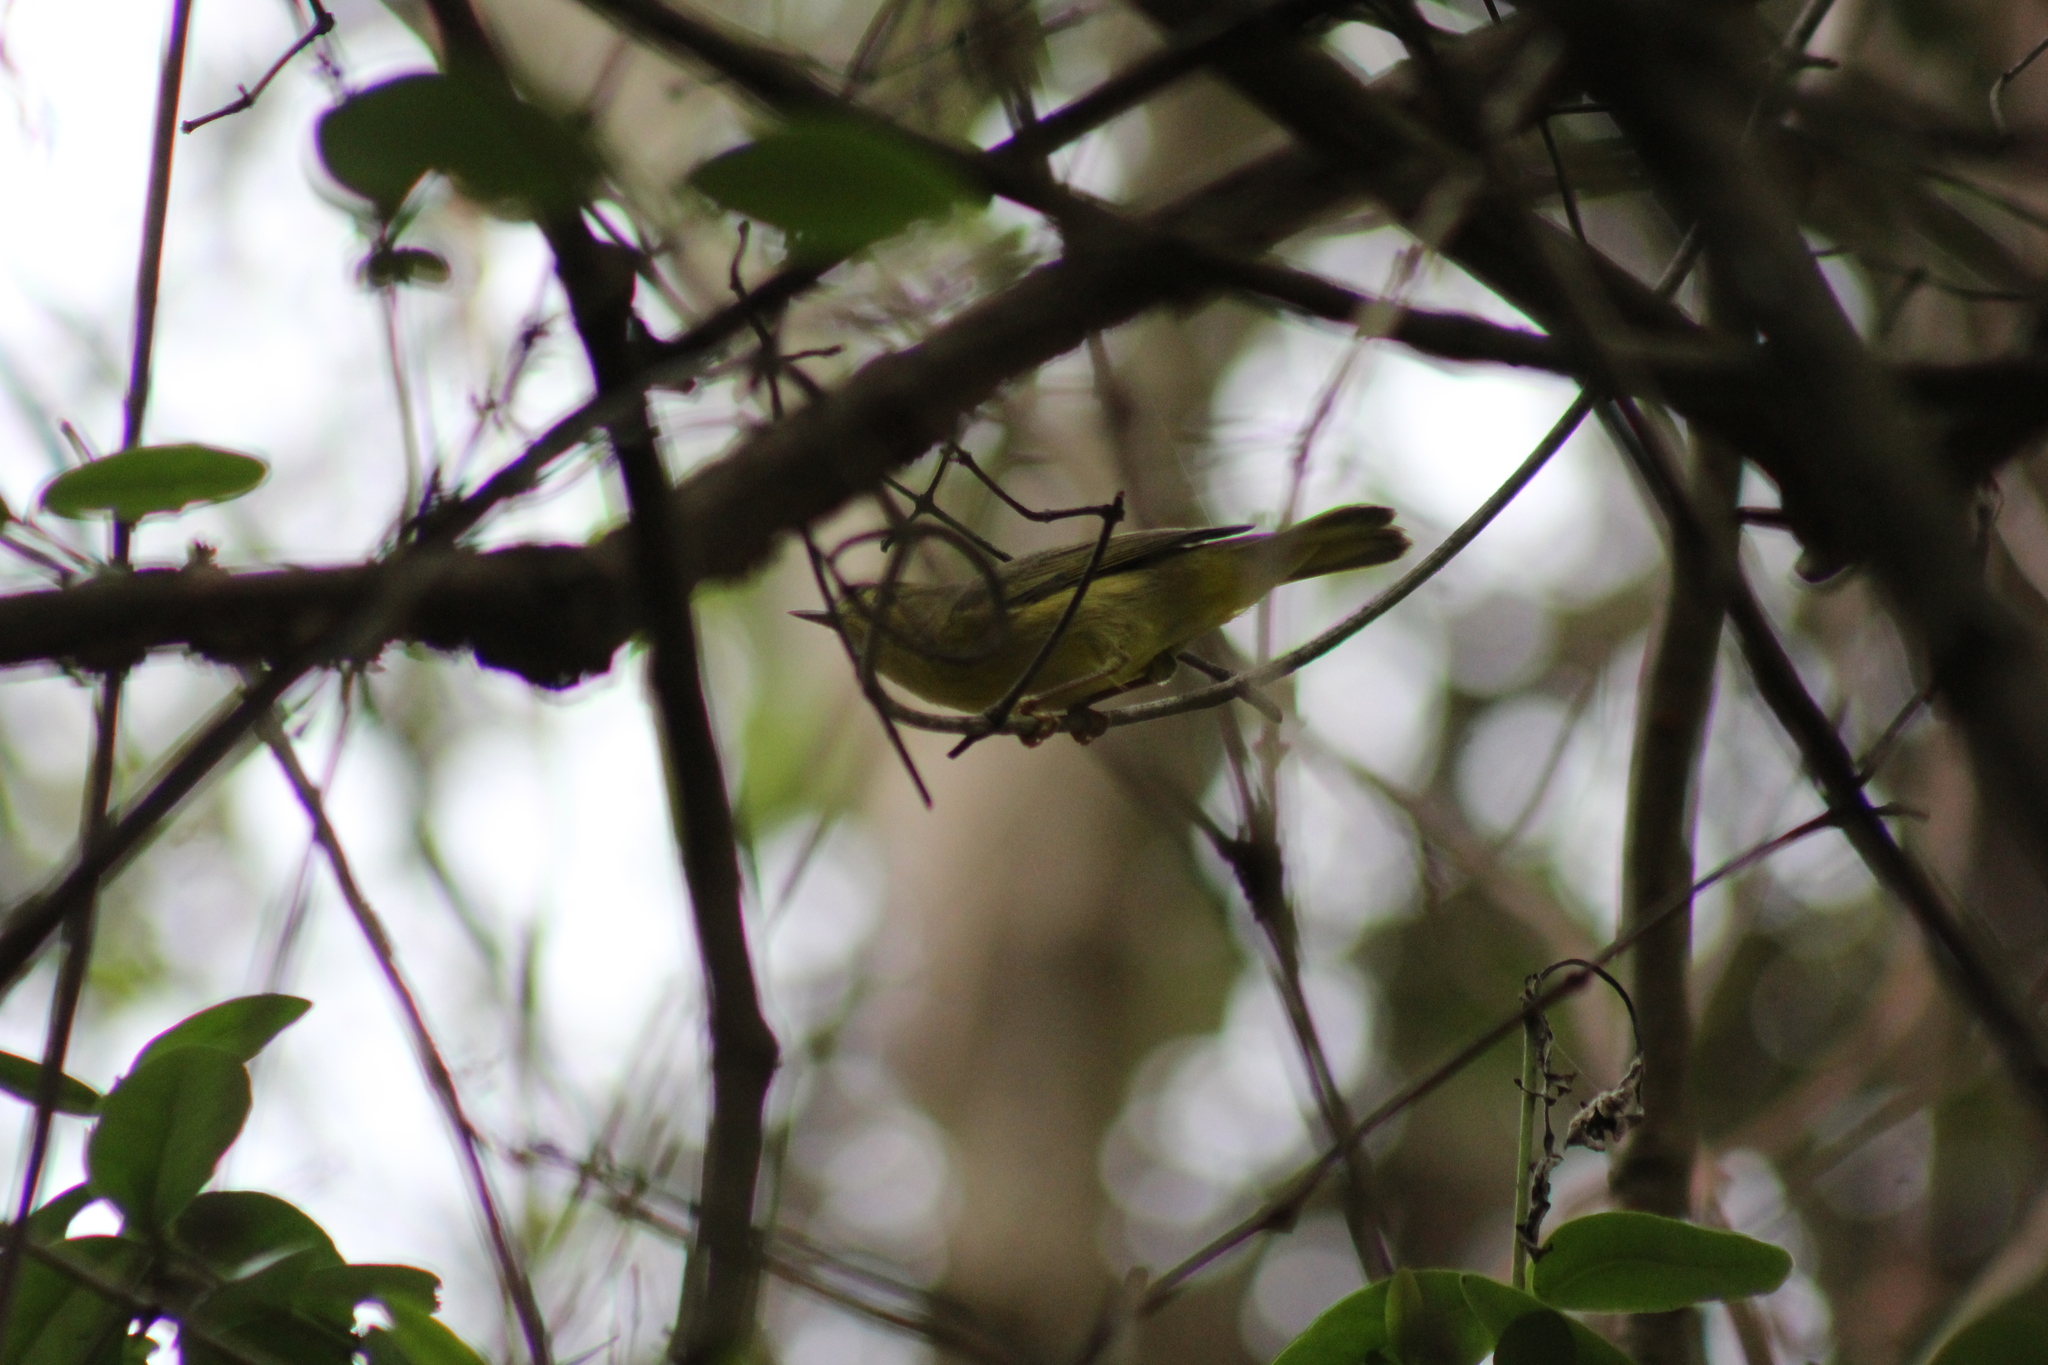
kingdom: Animalia
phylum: Chordata
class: Aves
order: Passeriformes
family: Parulidae
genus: Setophaga
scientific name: Setophaga petechia
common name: Yellow warbler
